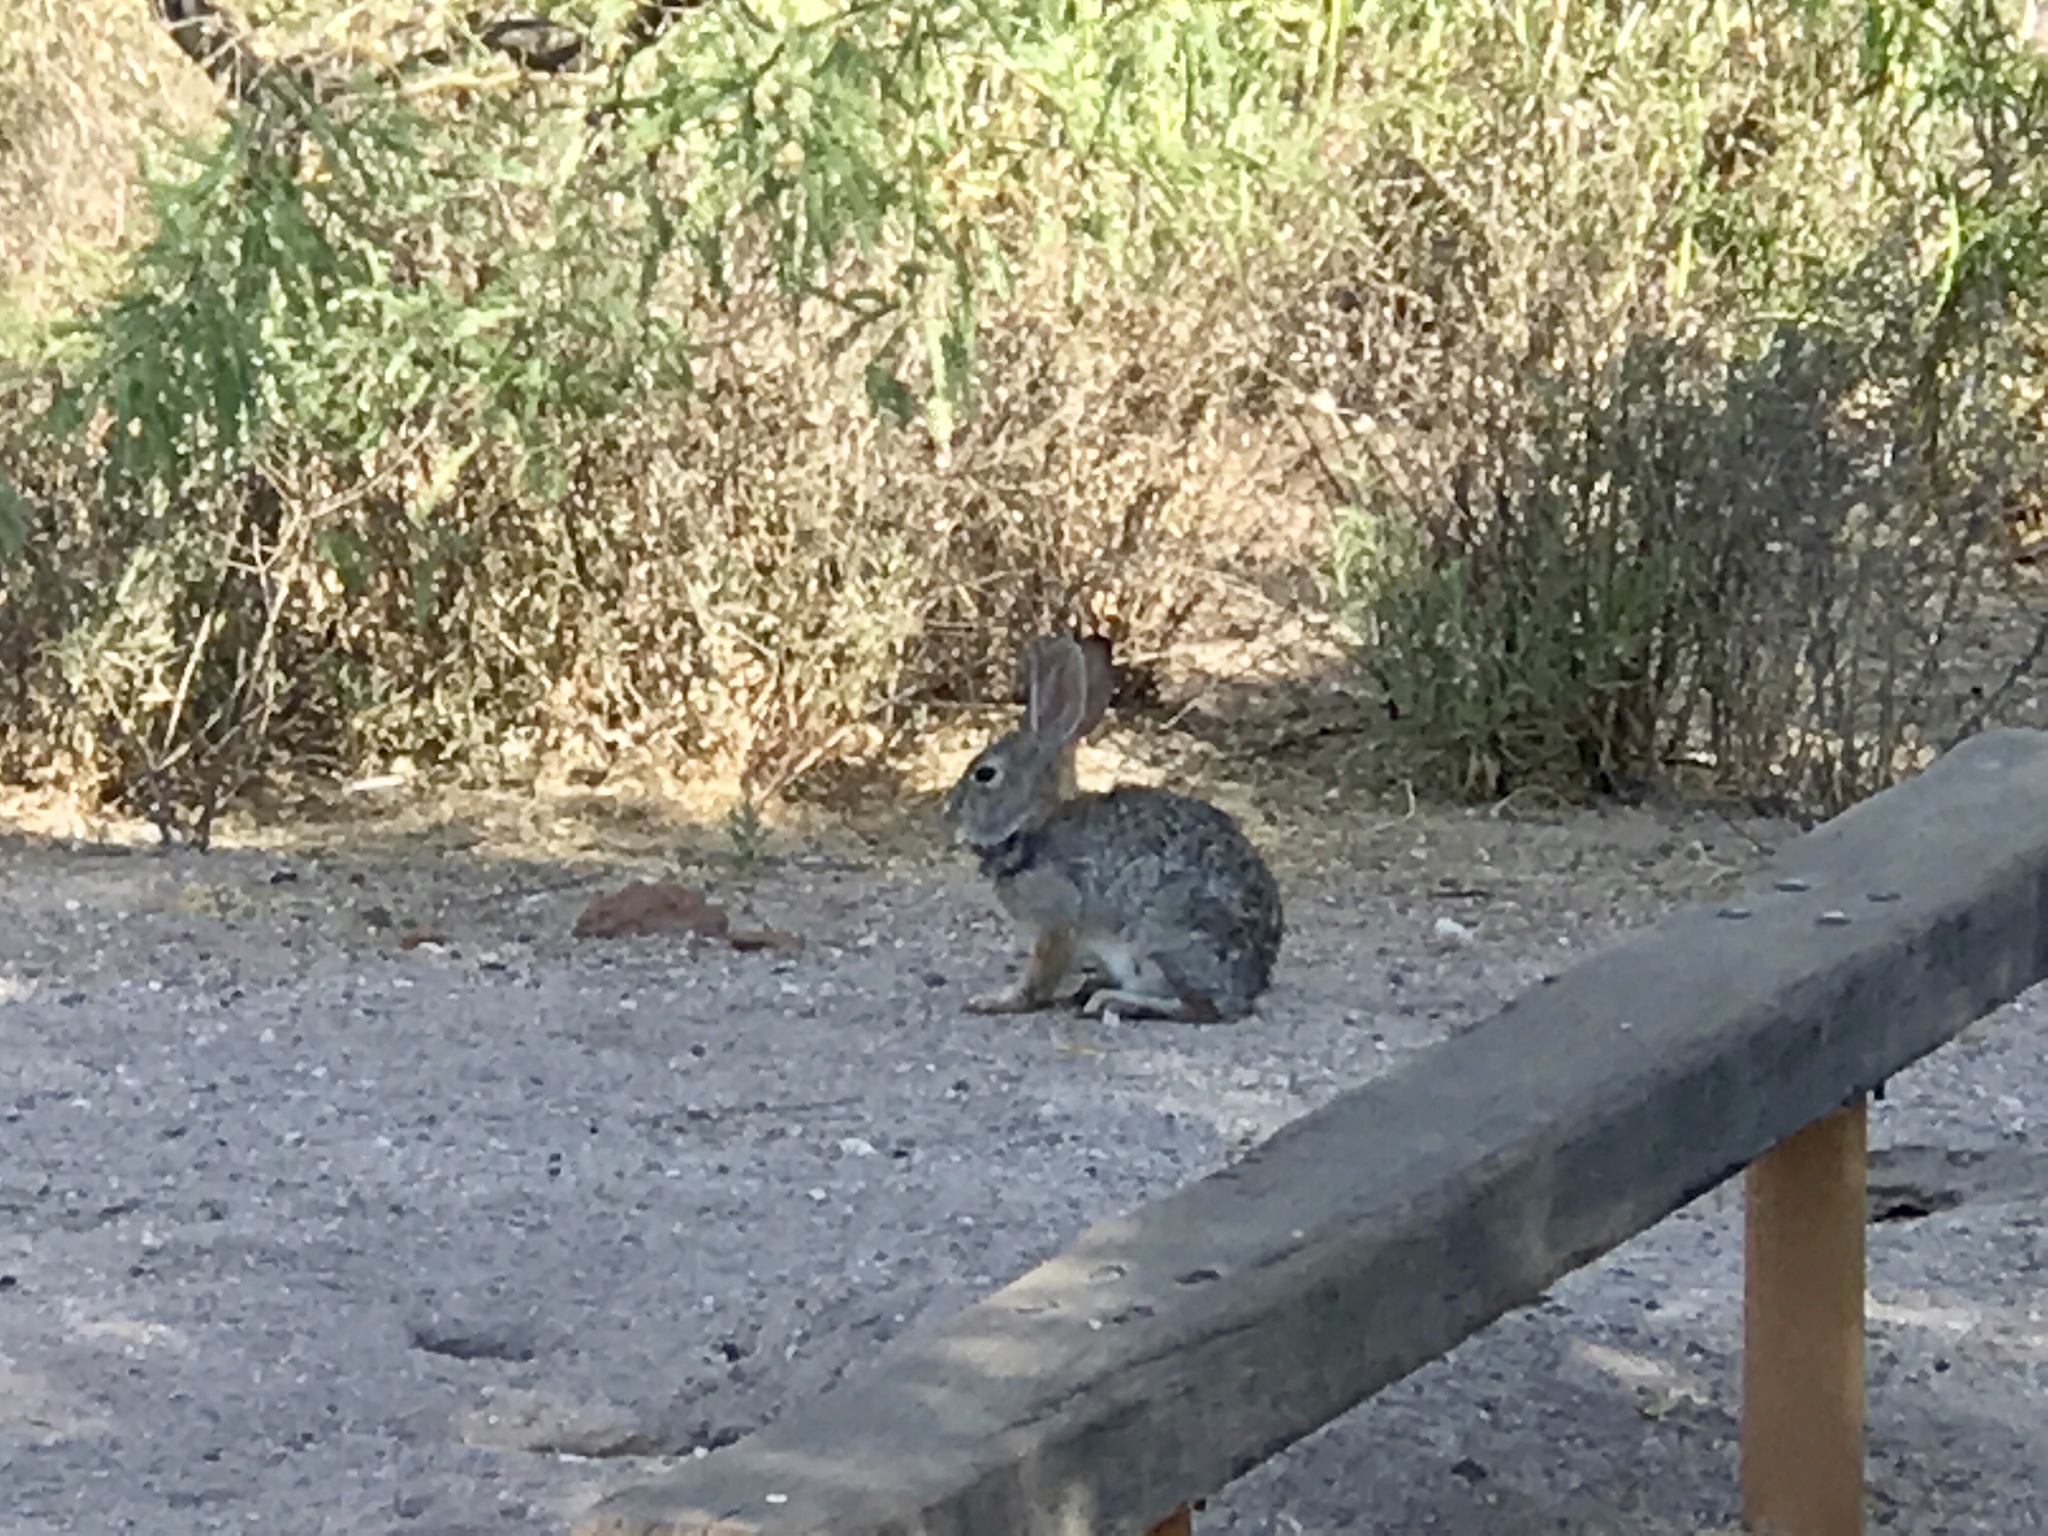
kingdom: Animalia
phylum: Chordata
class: Mammalia
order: Lagomorpha
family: Leporidae
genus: Sylvilagus
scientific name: Sylvilagus audubonii
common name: Desert cottontail
